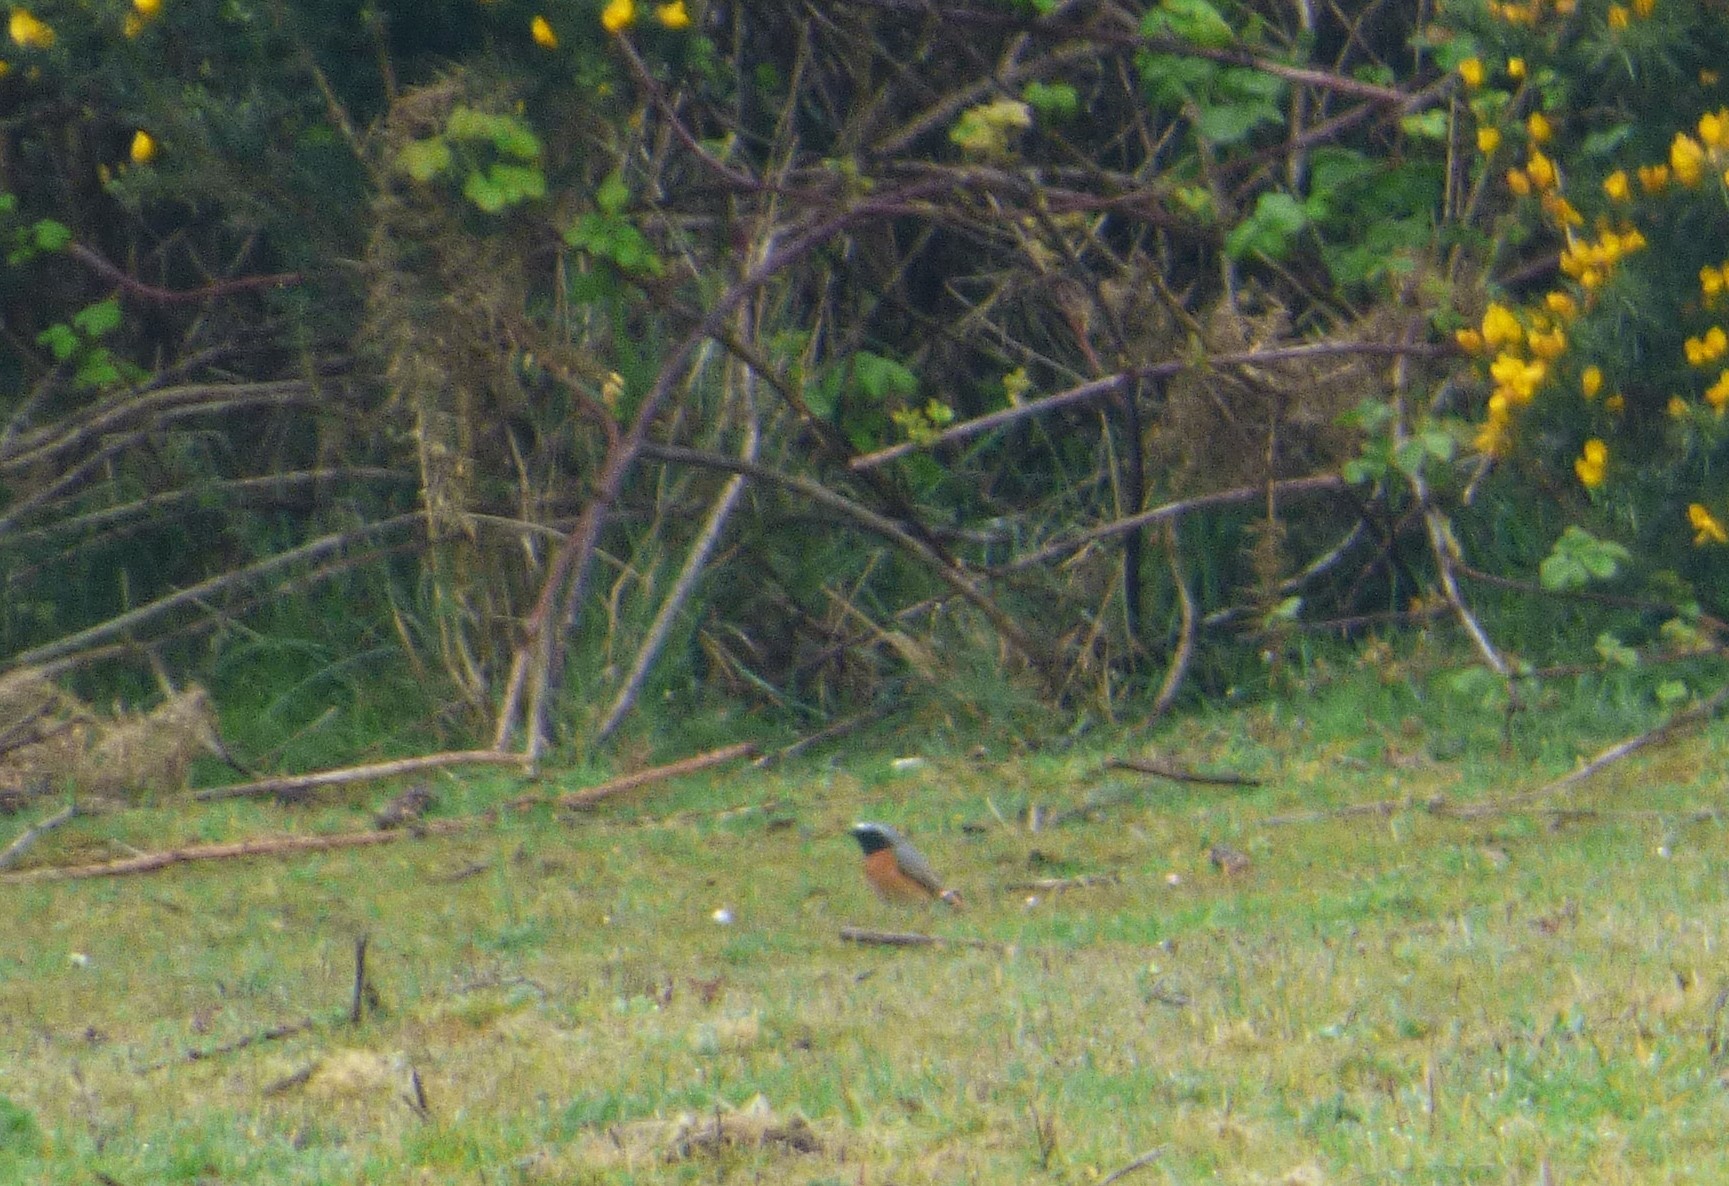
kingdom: Animalia
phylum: Chordata
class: Aves
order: Passeriformes
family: Muscicapidae
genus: Phoenicurus
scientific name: Phoenicurus phoenicurus
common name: Common redstart
